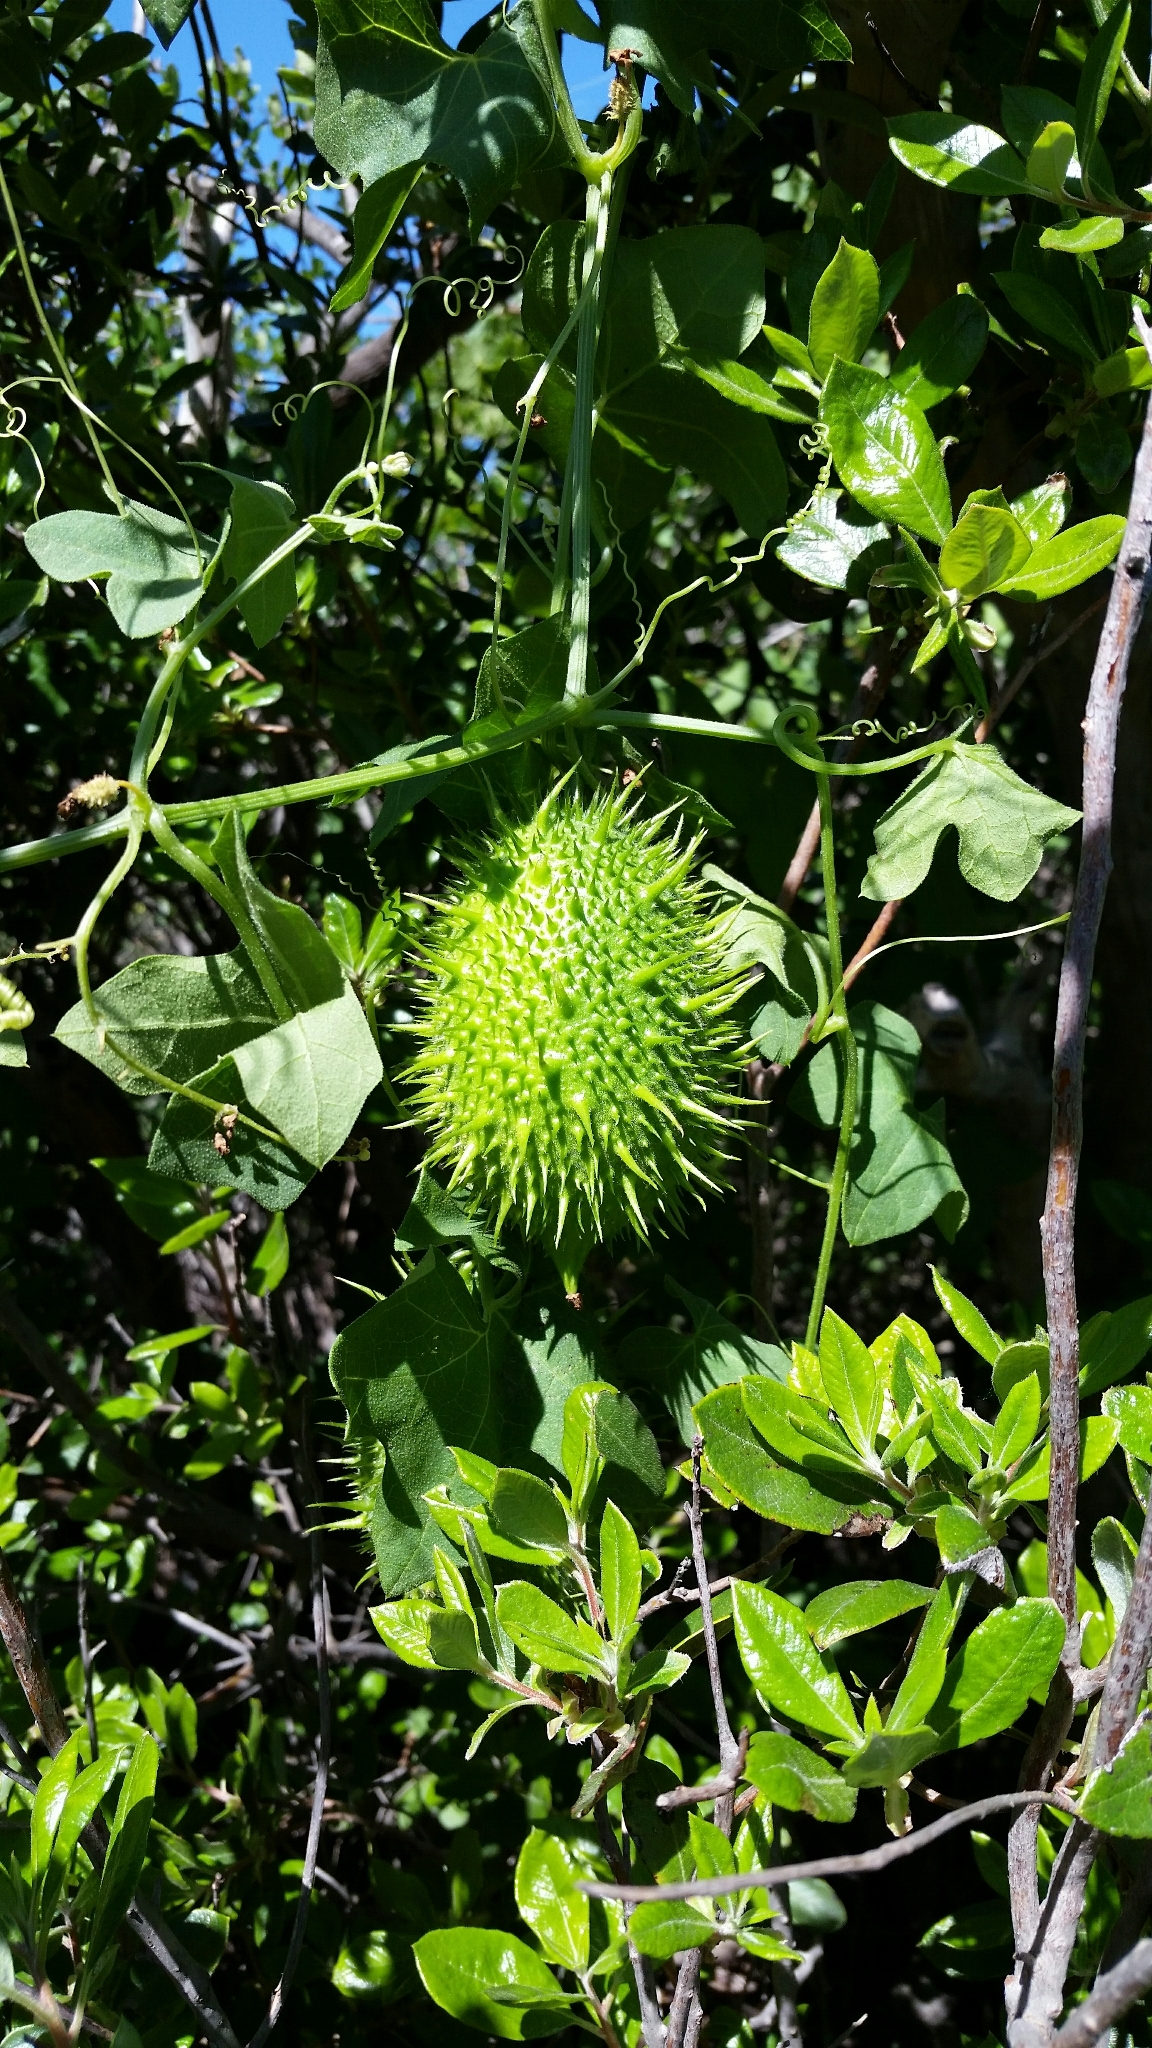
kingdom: Plantae
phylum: Tracheophyta
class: Magnoliopsida
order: Cucurbitales
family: Cucurbitaceae
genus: Marah
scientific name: Marah macrocarpa
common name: Cucamonga manroot
